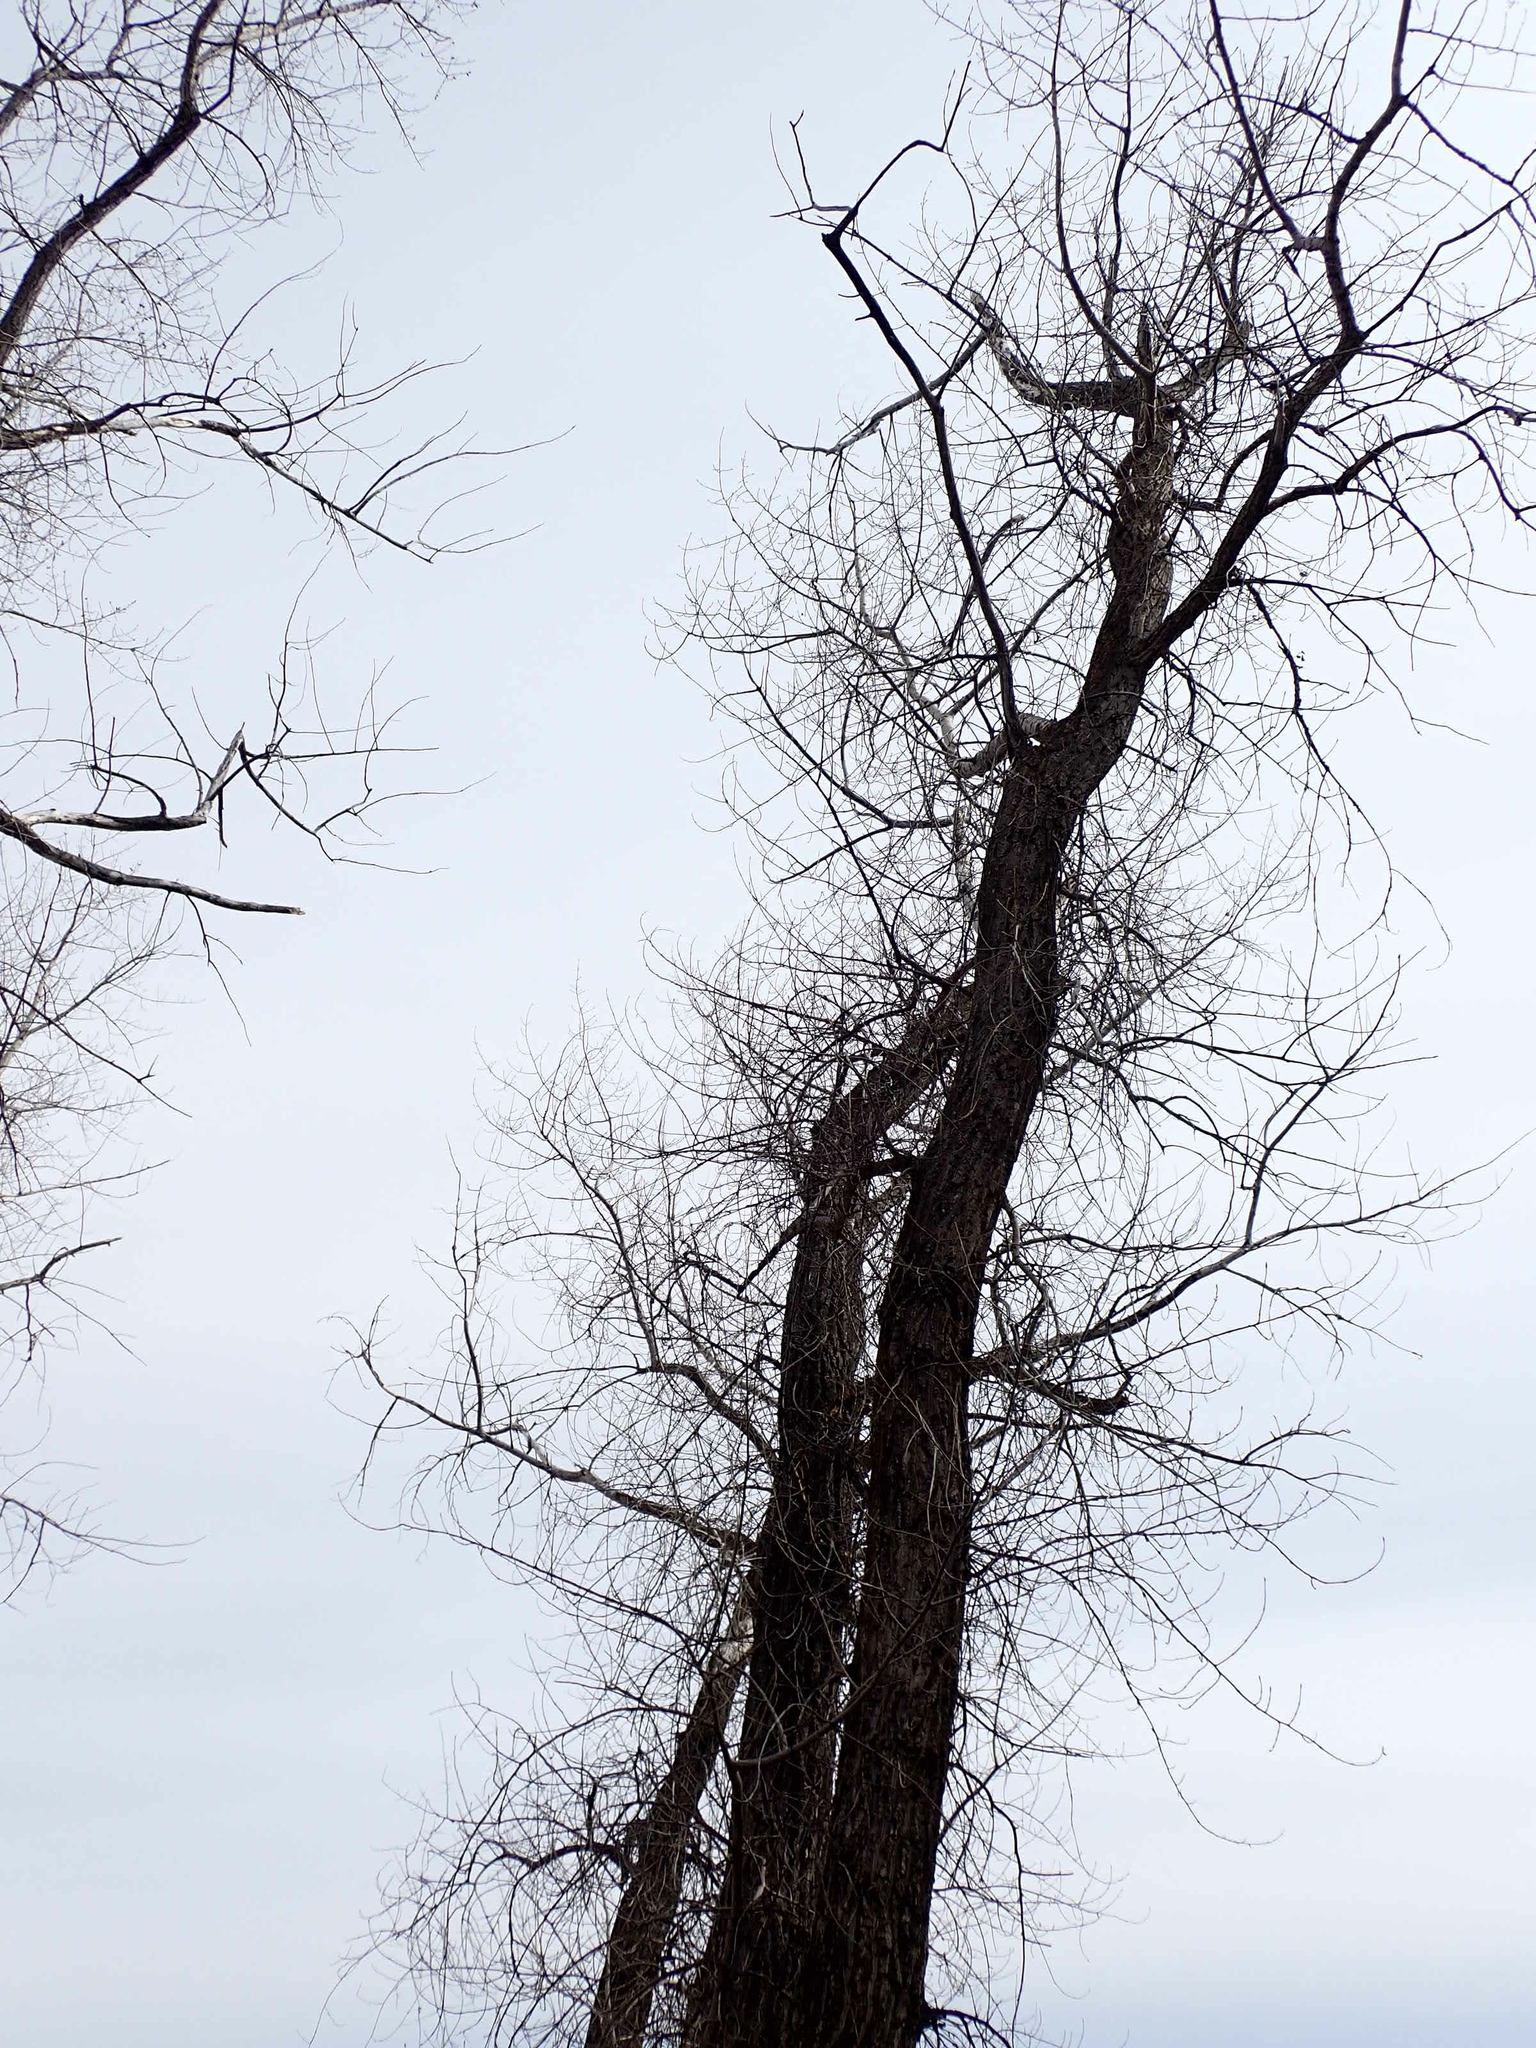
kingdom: Plantae
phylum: Tracheophyta
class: Magnoliopsida
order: Malpighiales
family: Salicaceae
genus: Populus
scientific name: Populus deltoides
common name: Eastern cottonwood
